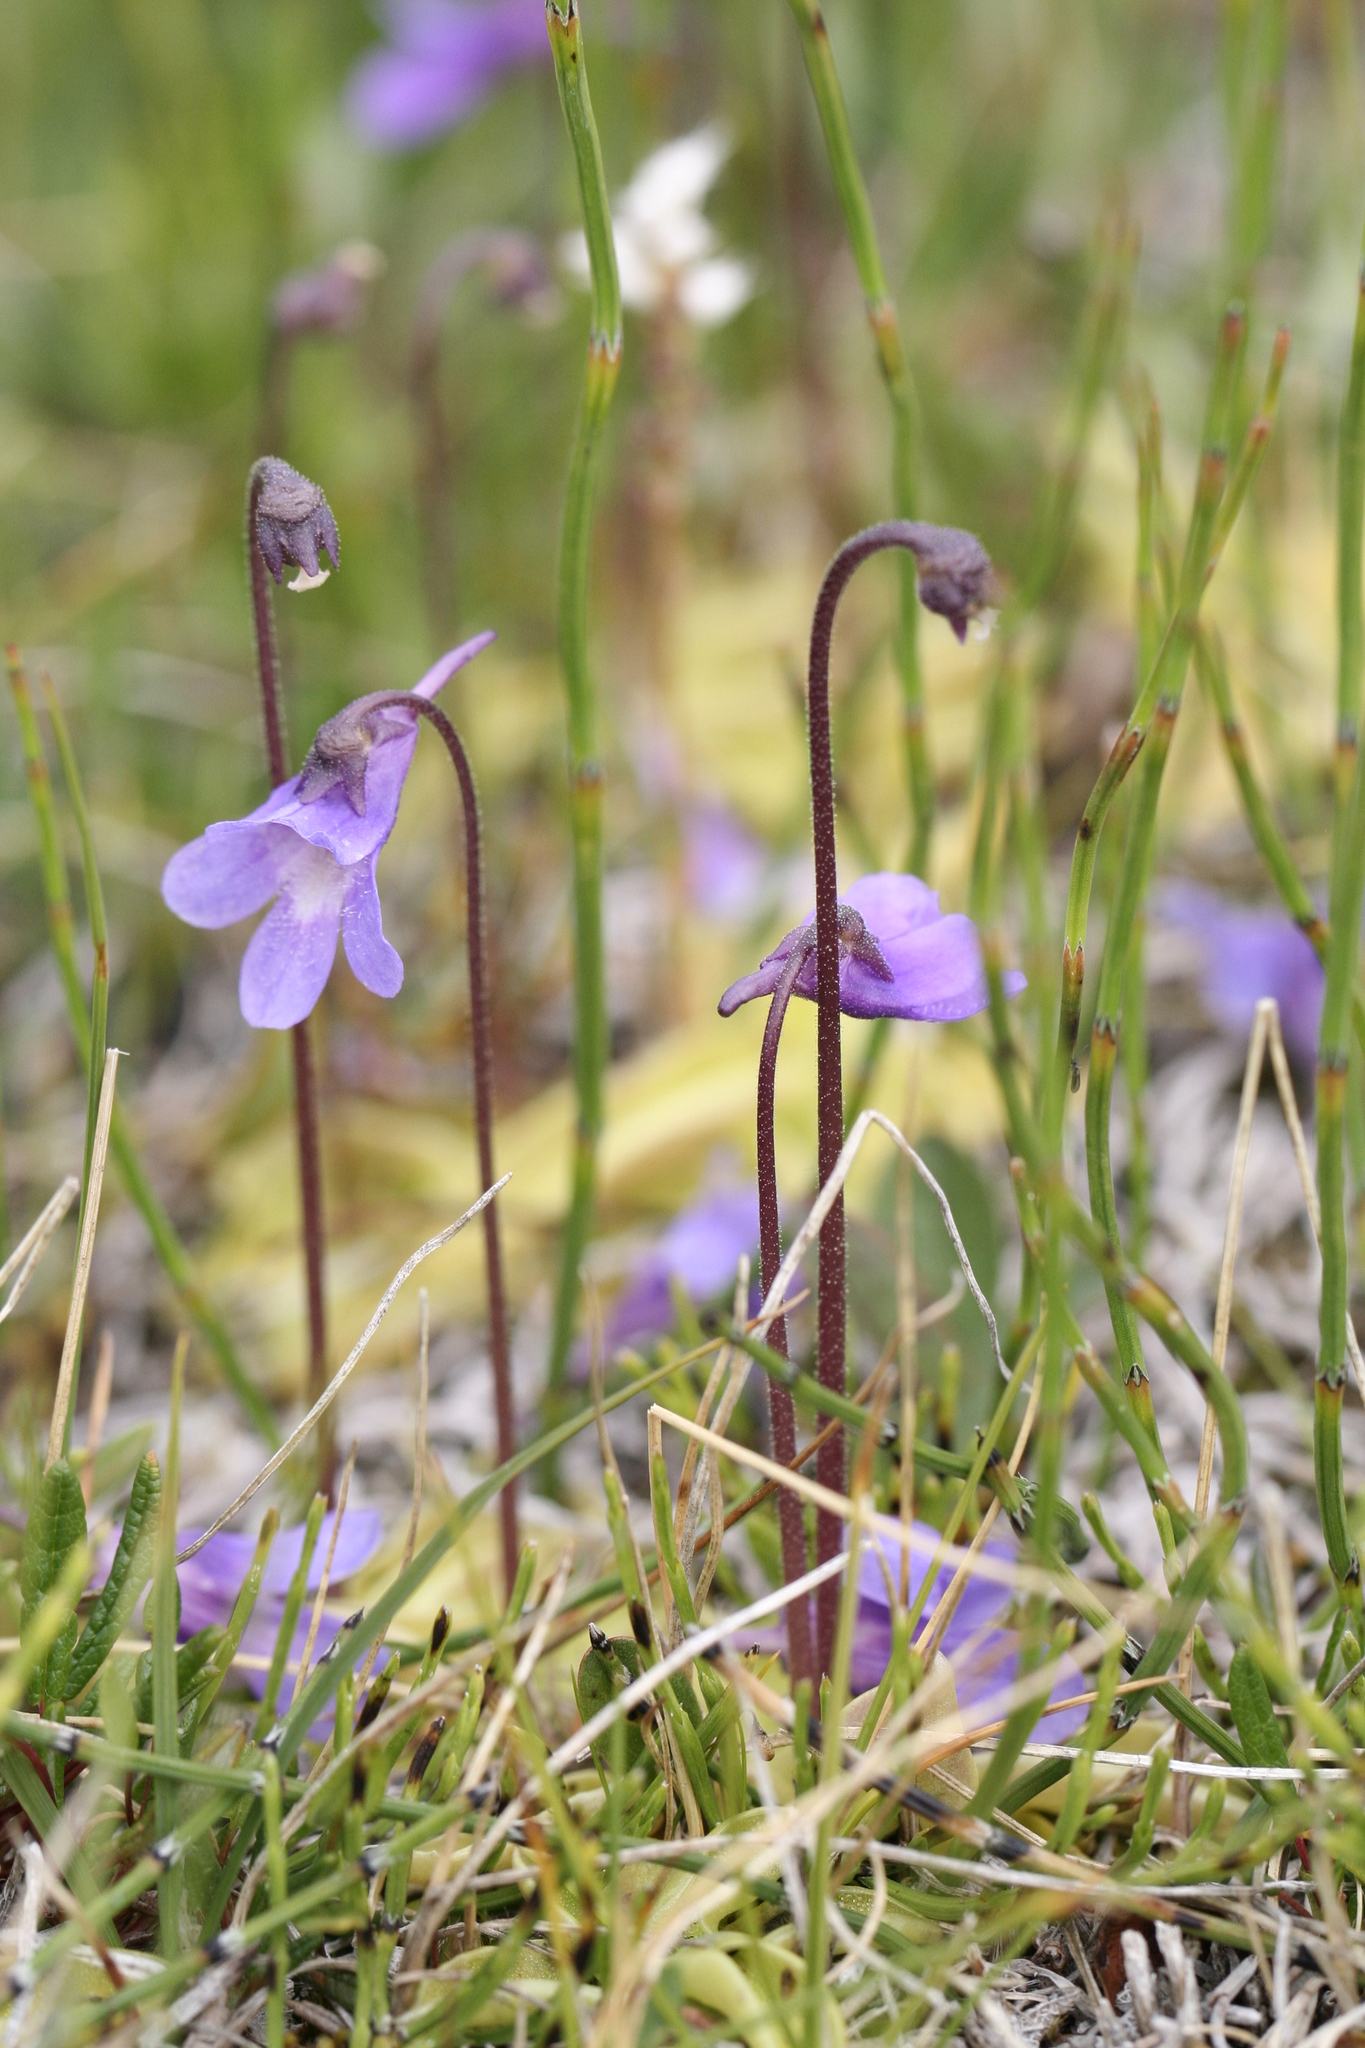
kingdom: Plantae
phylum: Tracheophyta
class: Magnoliopsida
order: Lamiales
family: Lentibulariaceae
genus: Pinguicula
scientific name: Pinguicula vulgaris
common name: Common butterwort
